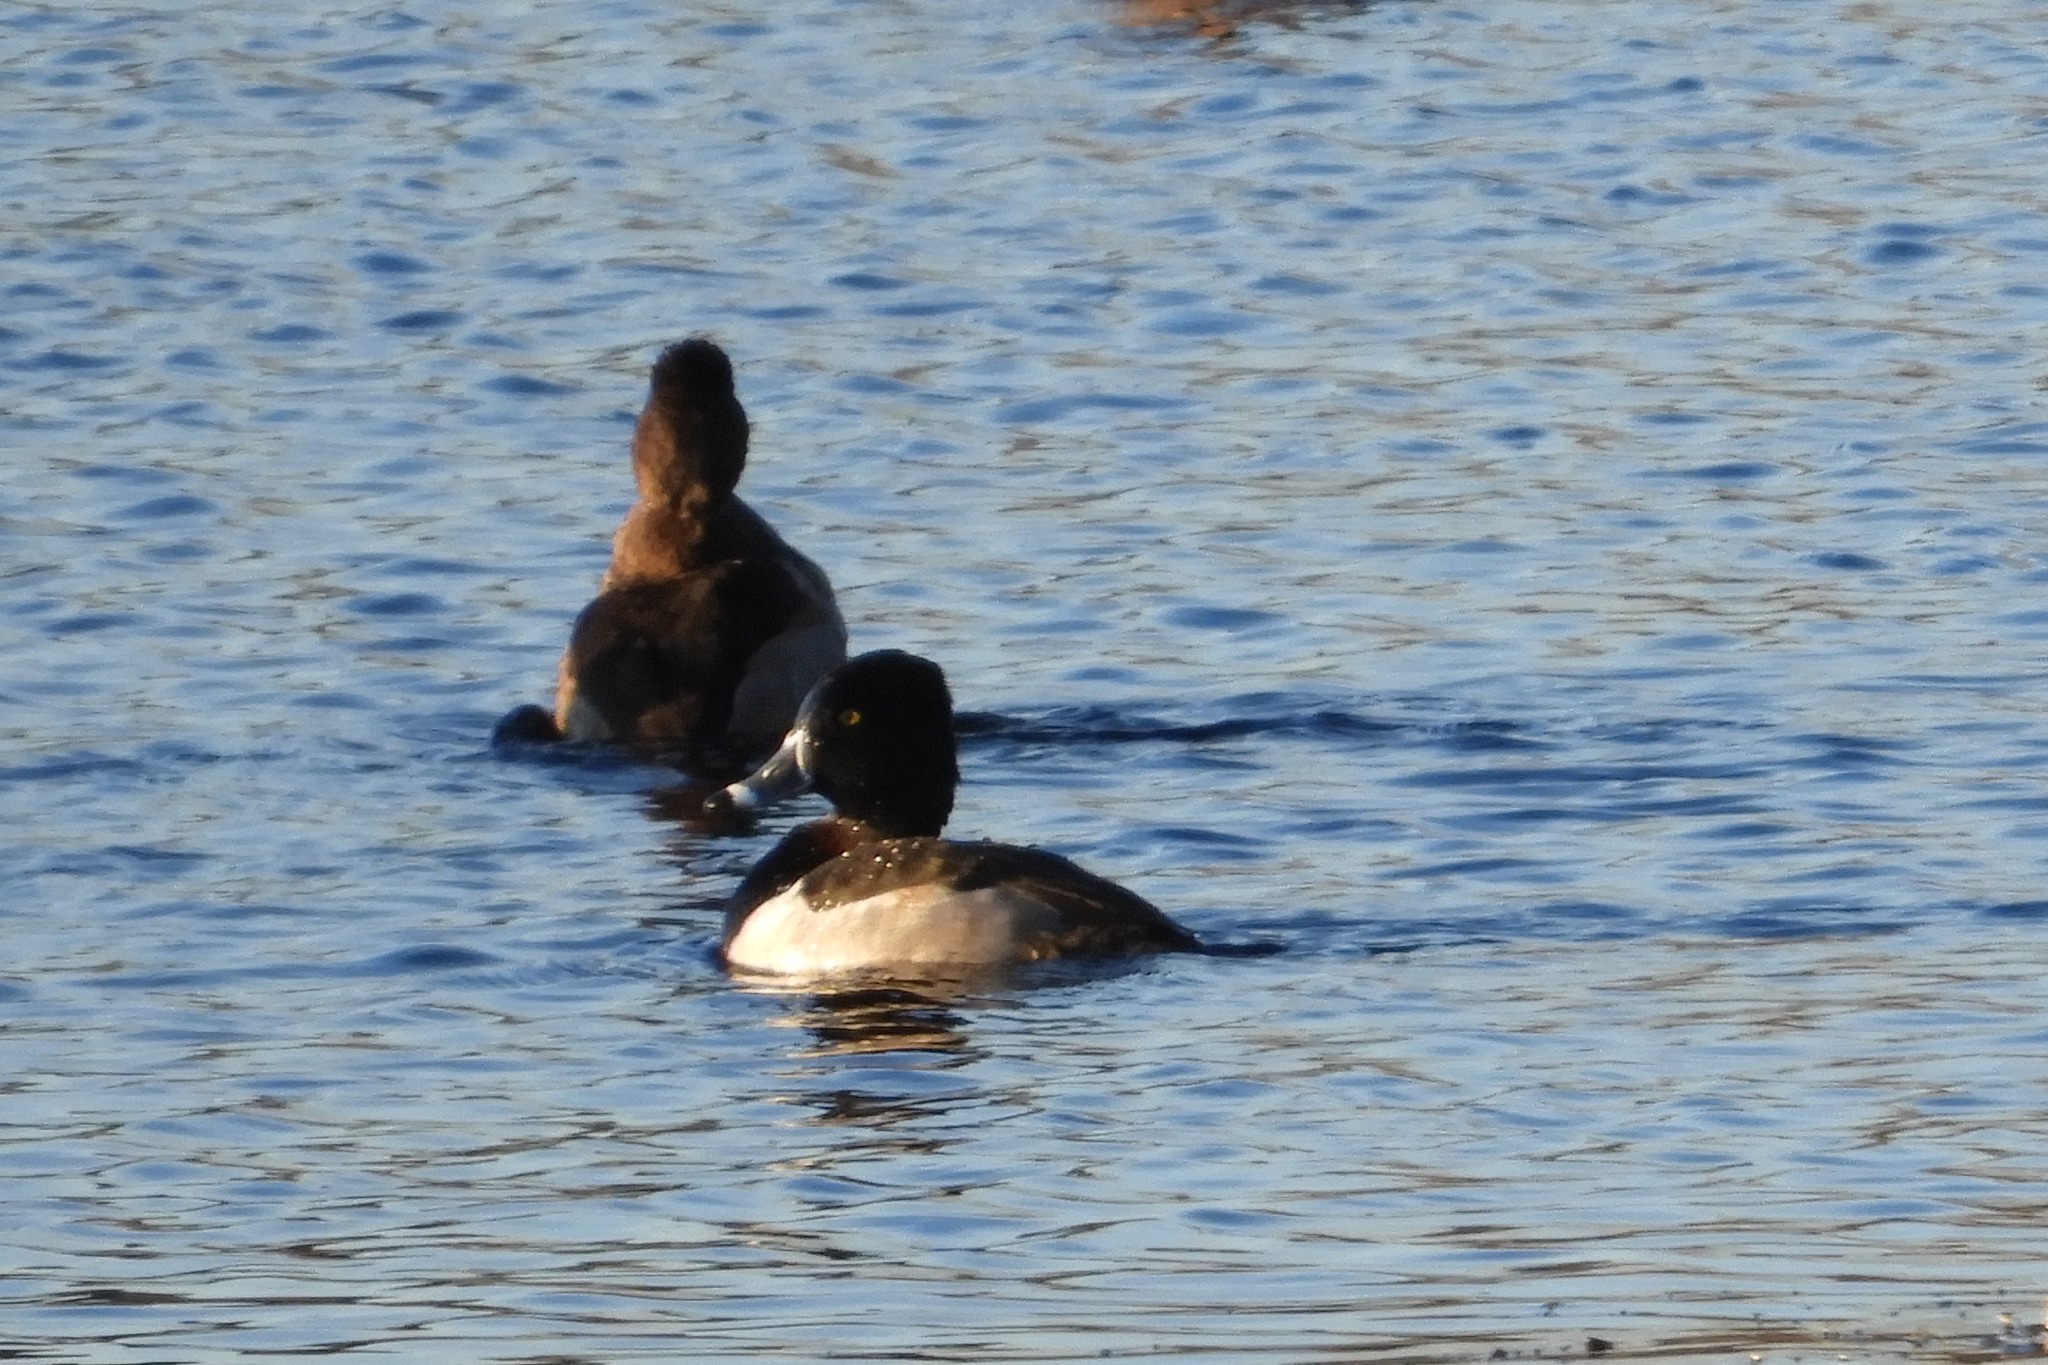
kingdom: Animalia
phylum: Chordata
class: Aves
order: Anseriformes
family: Anatidae
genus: Aythya
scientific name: Aythya collaris
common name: Ring-necked duck
